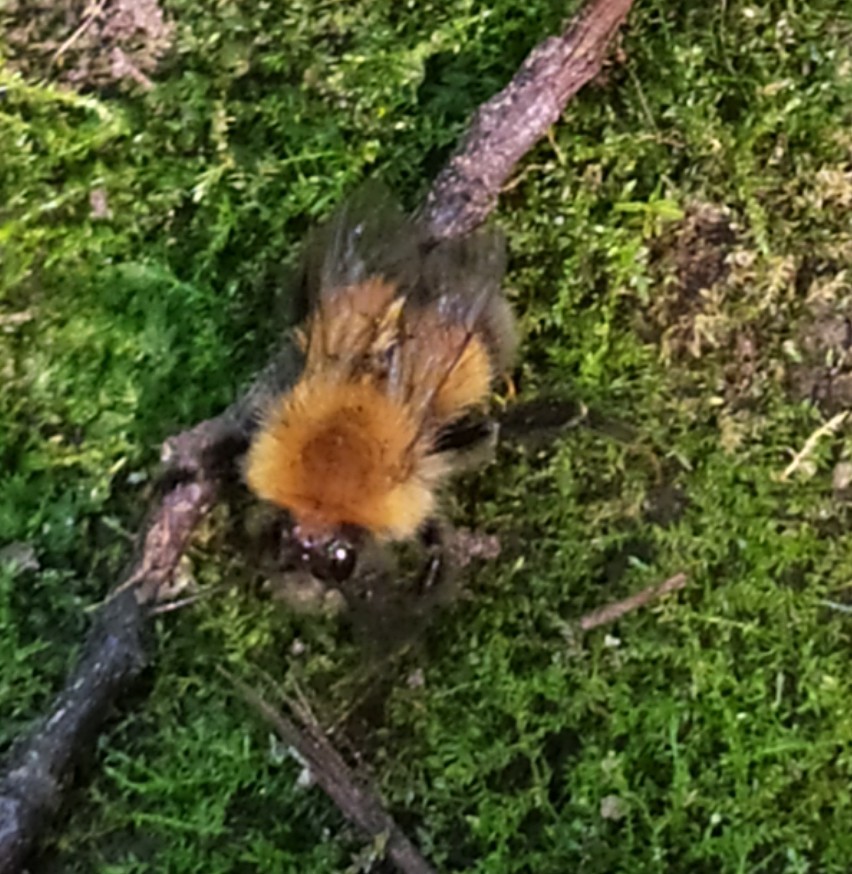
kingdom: Animalia
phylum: Arthropoda
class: Insecta
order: Hymenoptera
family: Apidae
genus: Bombus
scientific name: Bombus hypnorum
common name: New garden bumblebee
